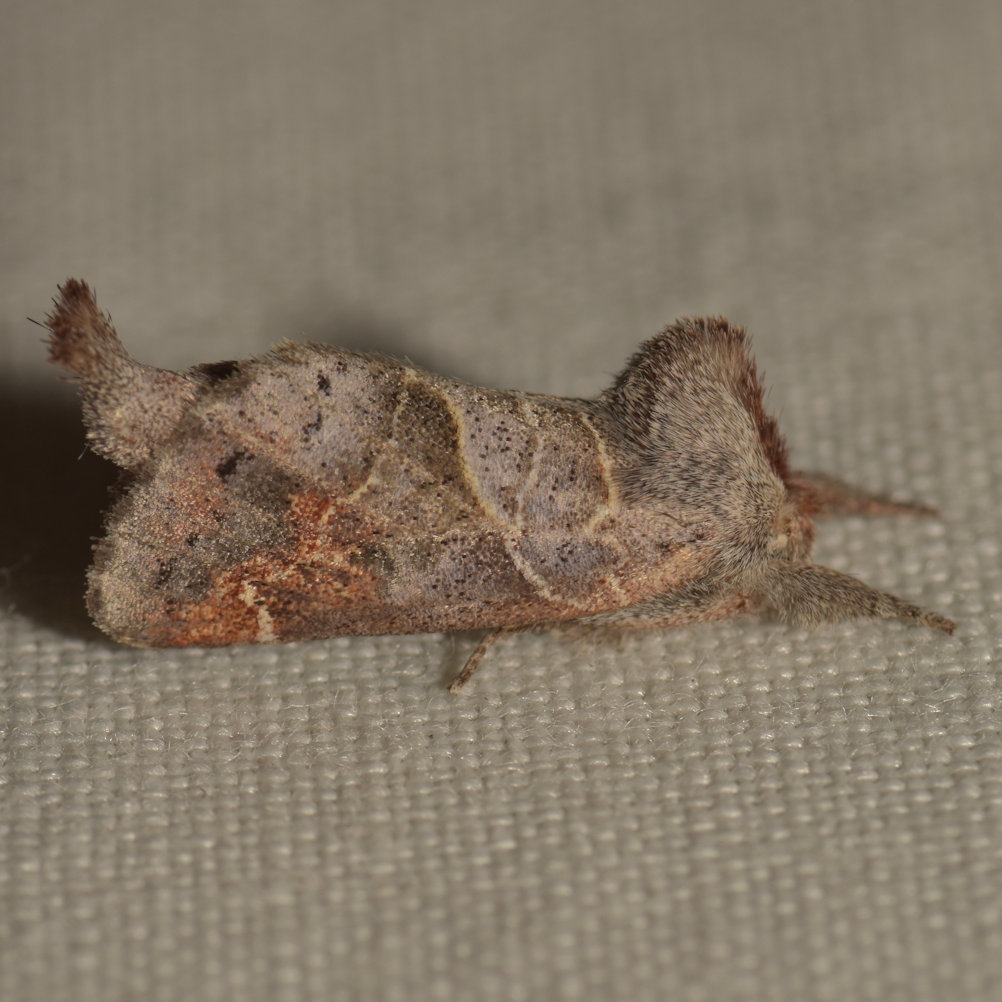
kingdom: Animalia
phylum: Arthropoda
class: Insecta
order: Lepidoptera
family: Notodontidae
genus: Clostera
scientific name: Clostera apicalis
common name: Apical prominent
